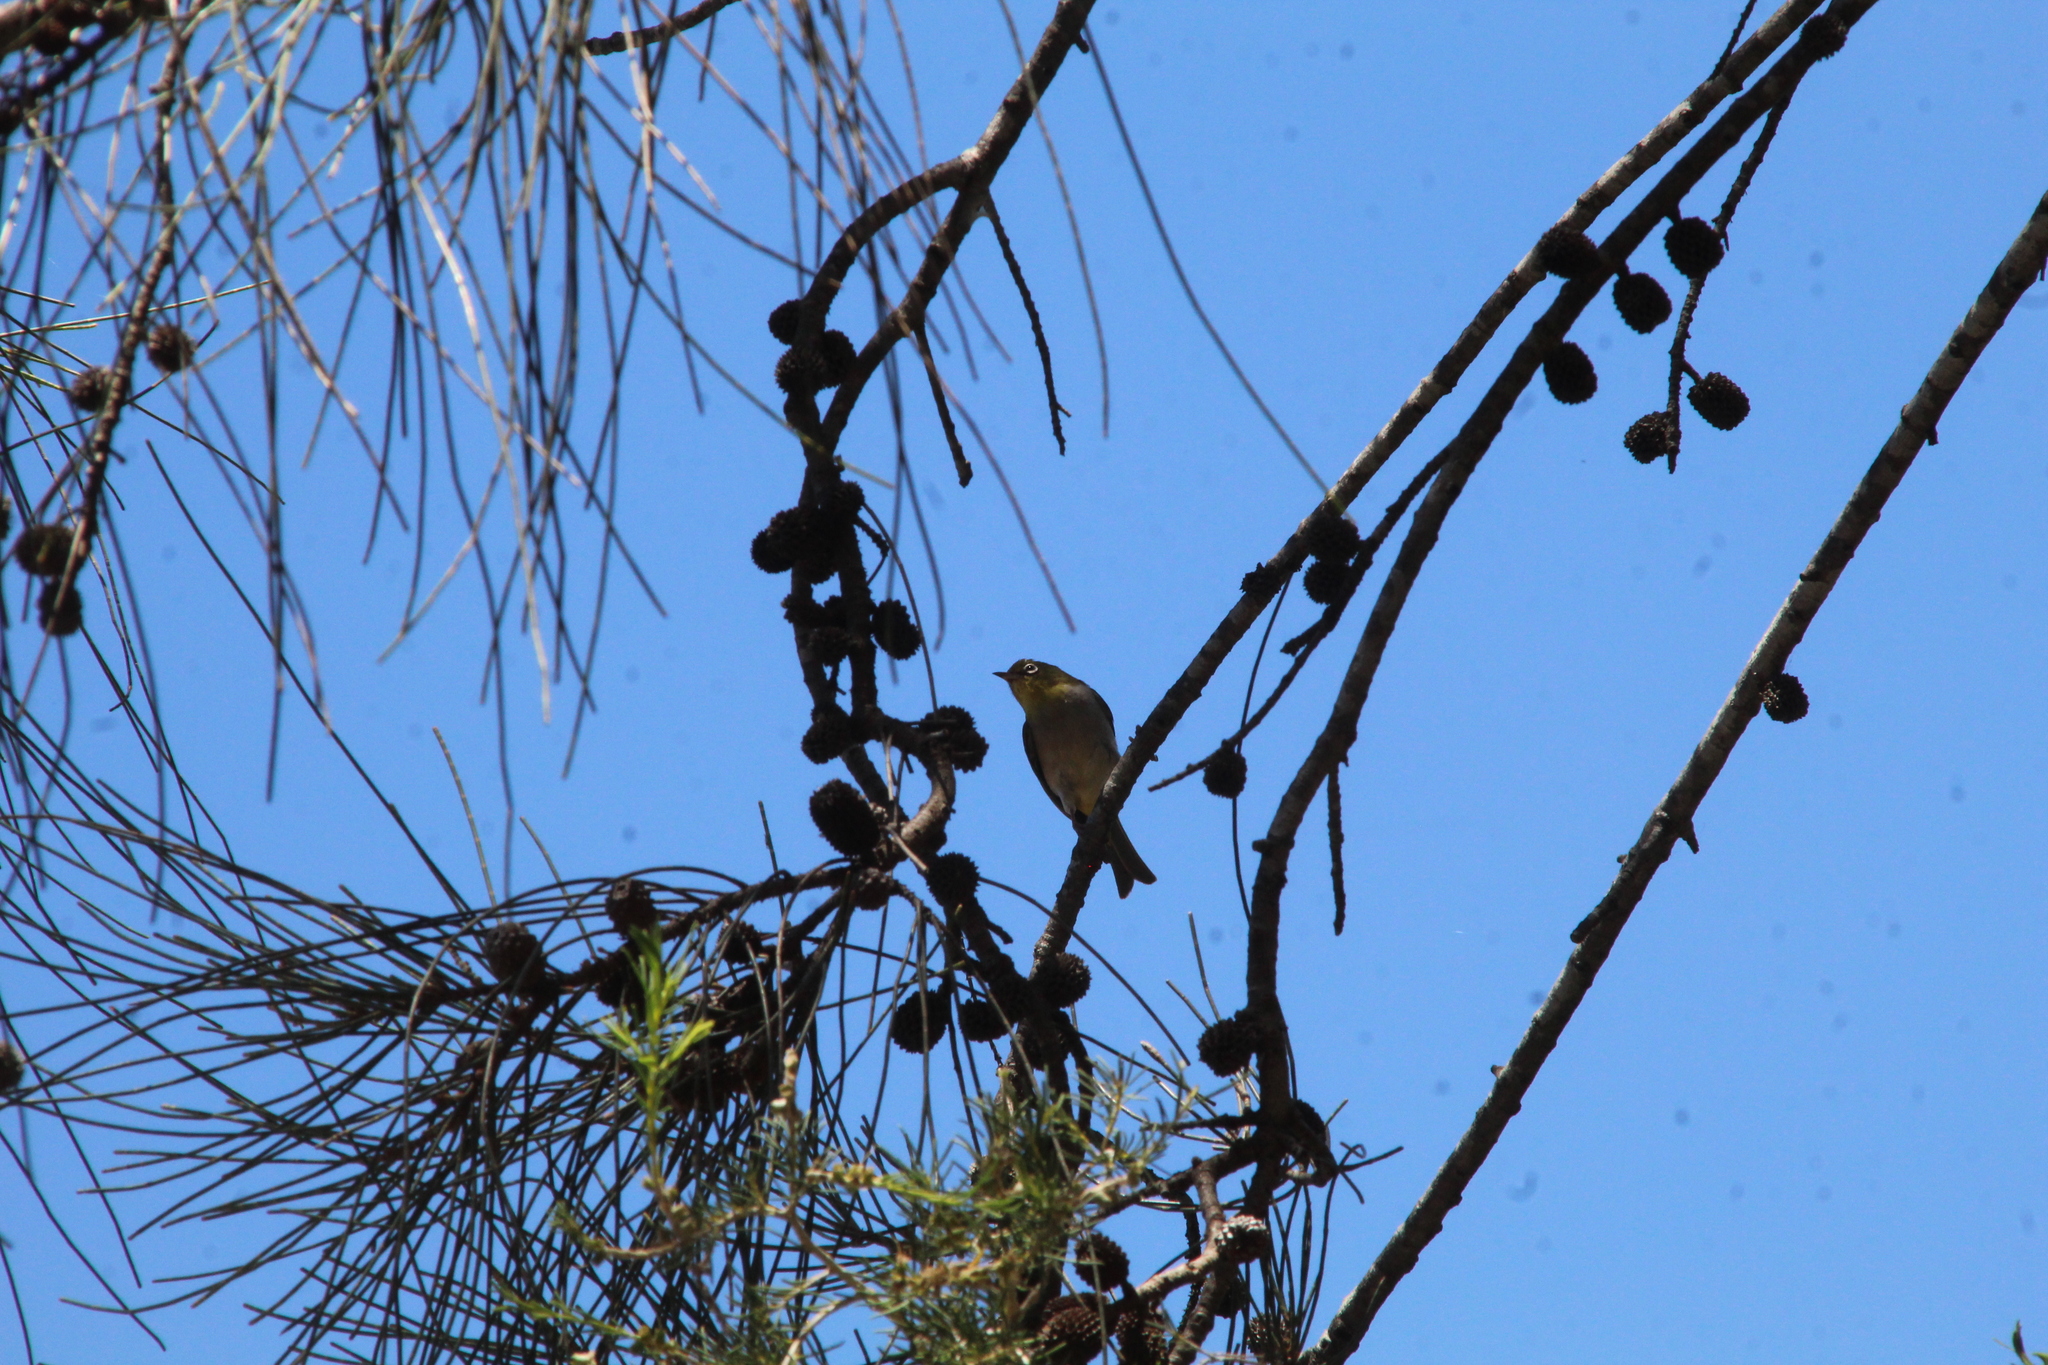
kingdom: Animalia
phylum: Chordata
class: Aves
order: Passeriformes
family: Zosteropidae
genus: Zosterops
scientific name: Zosterops lateralis
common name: Silvereye
